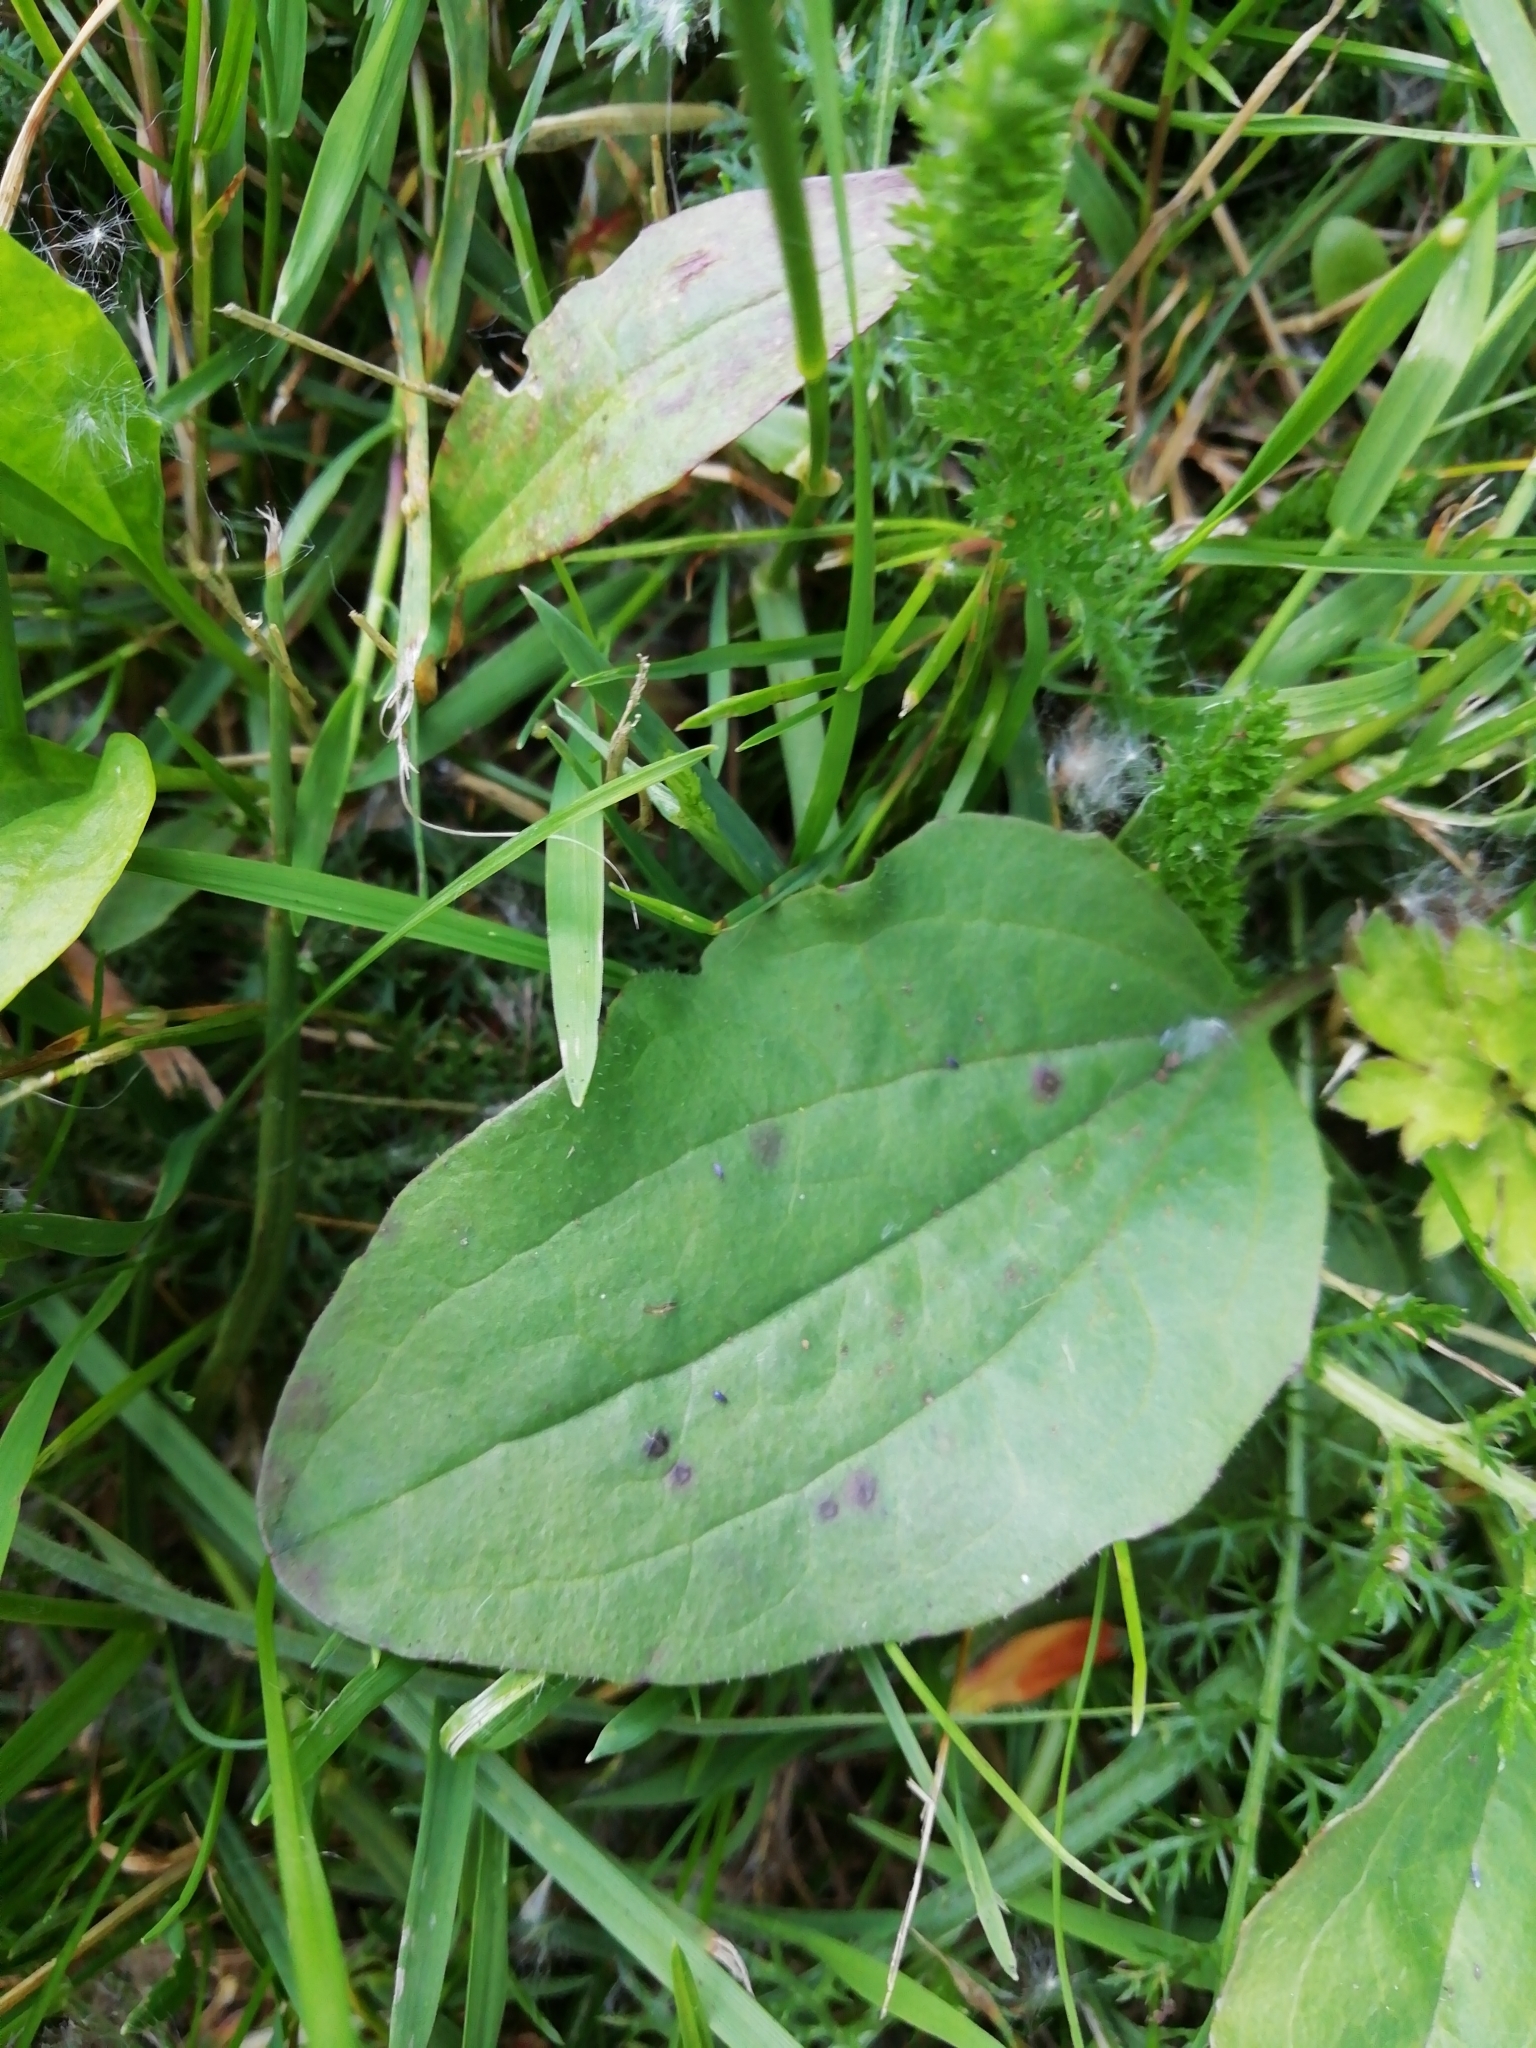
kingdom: Plantae
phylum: Tracheophyta
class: Magnoliopsida
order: Lamiales
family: Plantaginaceae
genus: Plantago
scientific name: Plantago major
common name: Common plantain
